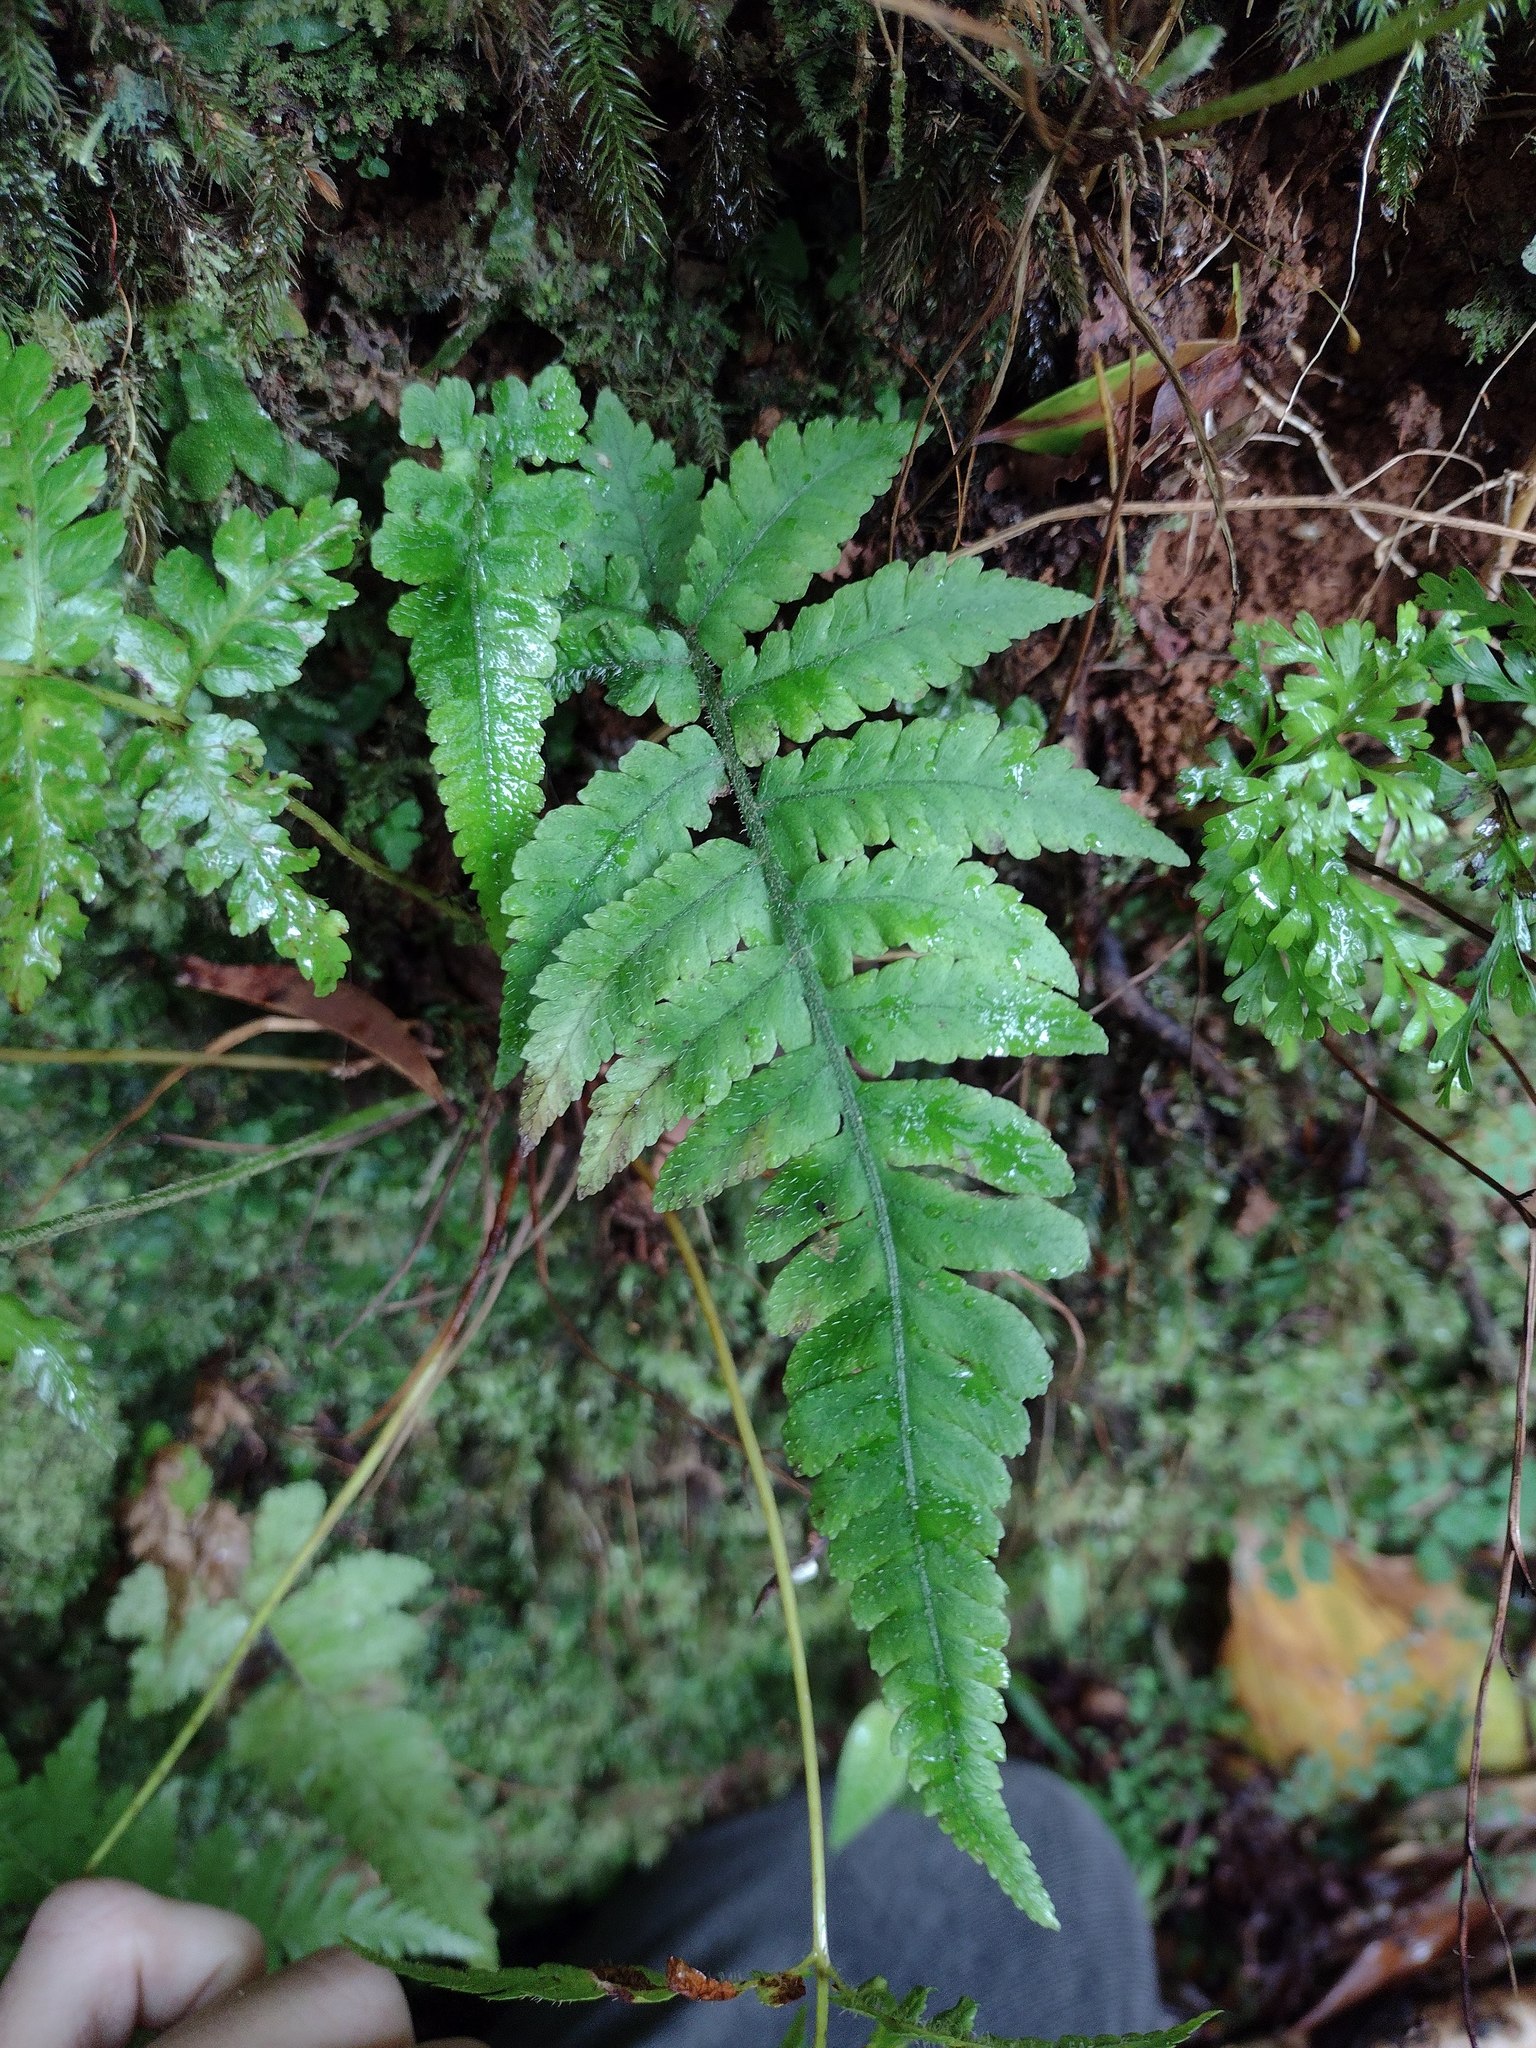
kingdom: Plantae
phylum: Tracheophyta
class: Polypodiopsida
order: Polypodiales
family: Athyriaceae
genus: Deparia
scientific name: Deparia petersenii
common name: Japanese false spleenwort
